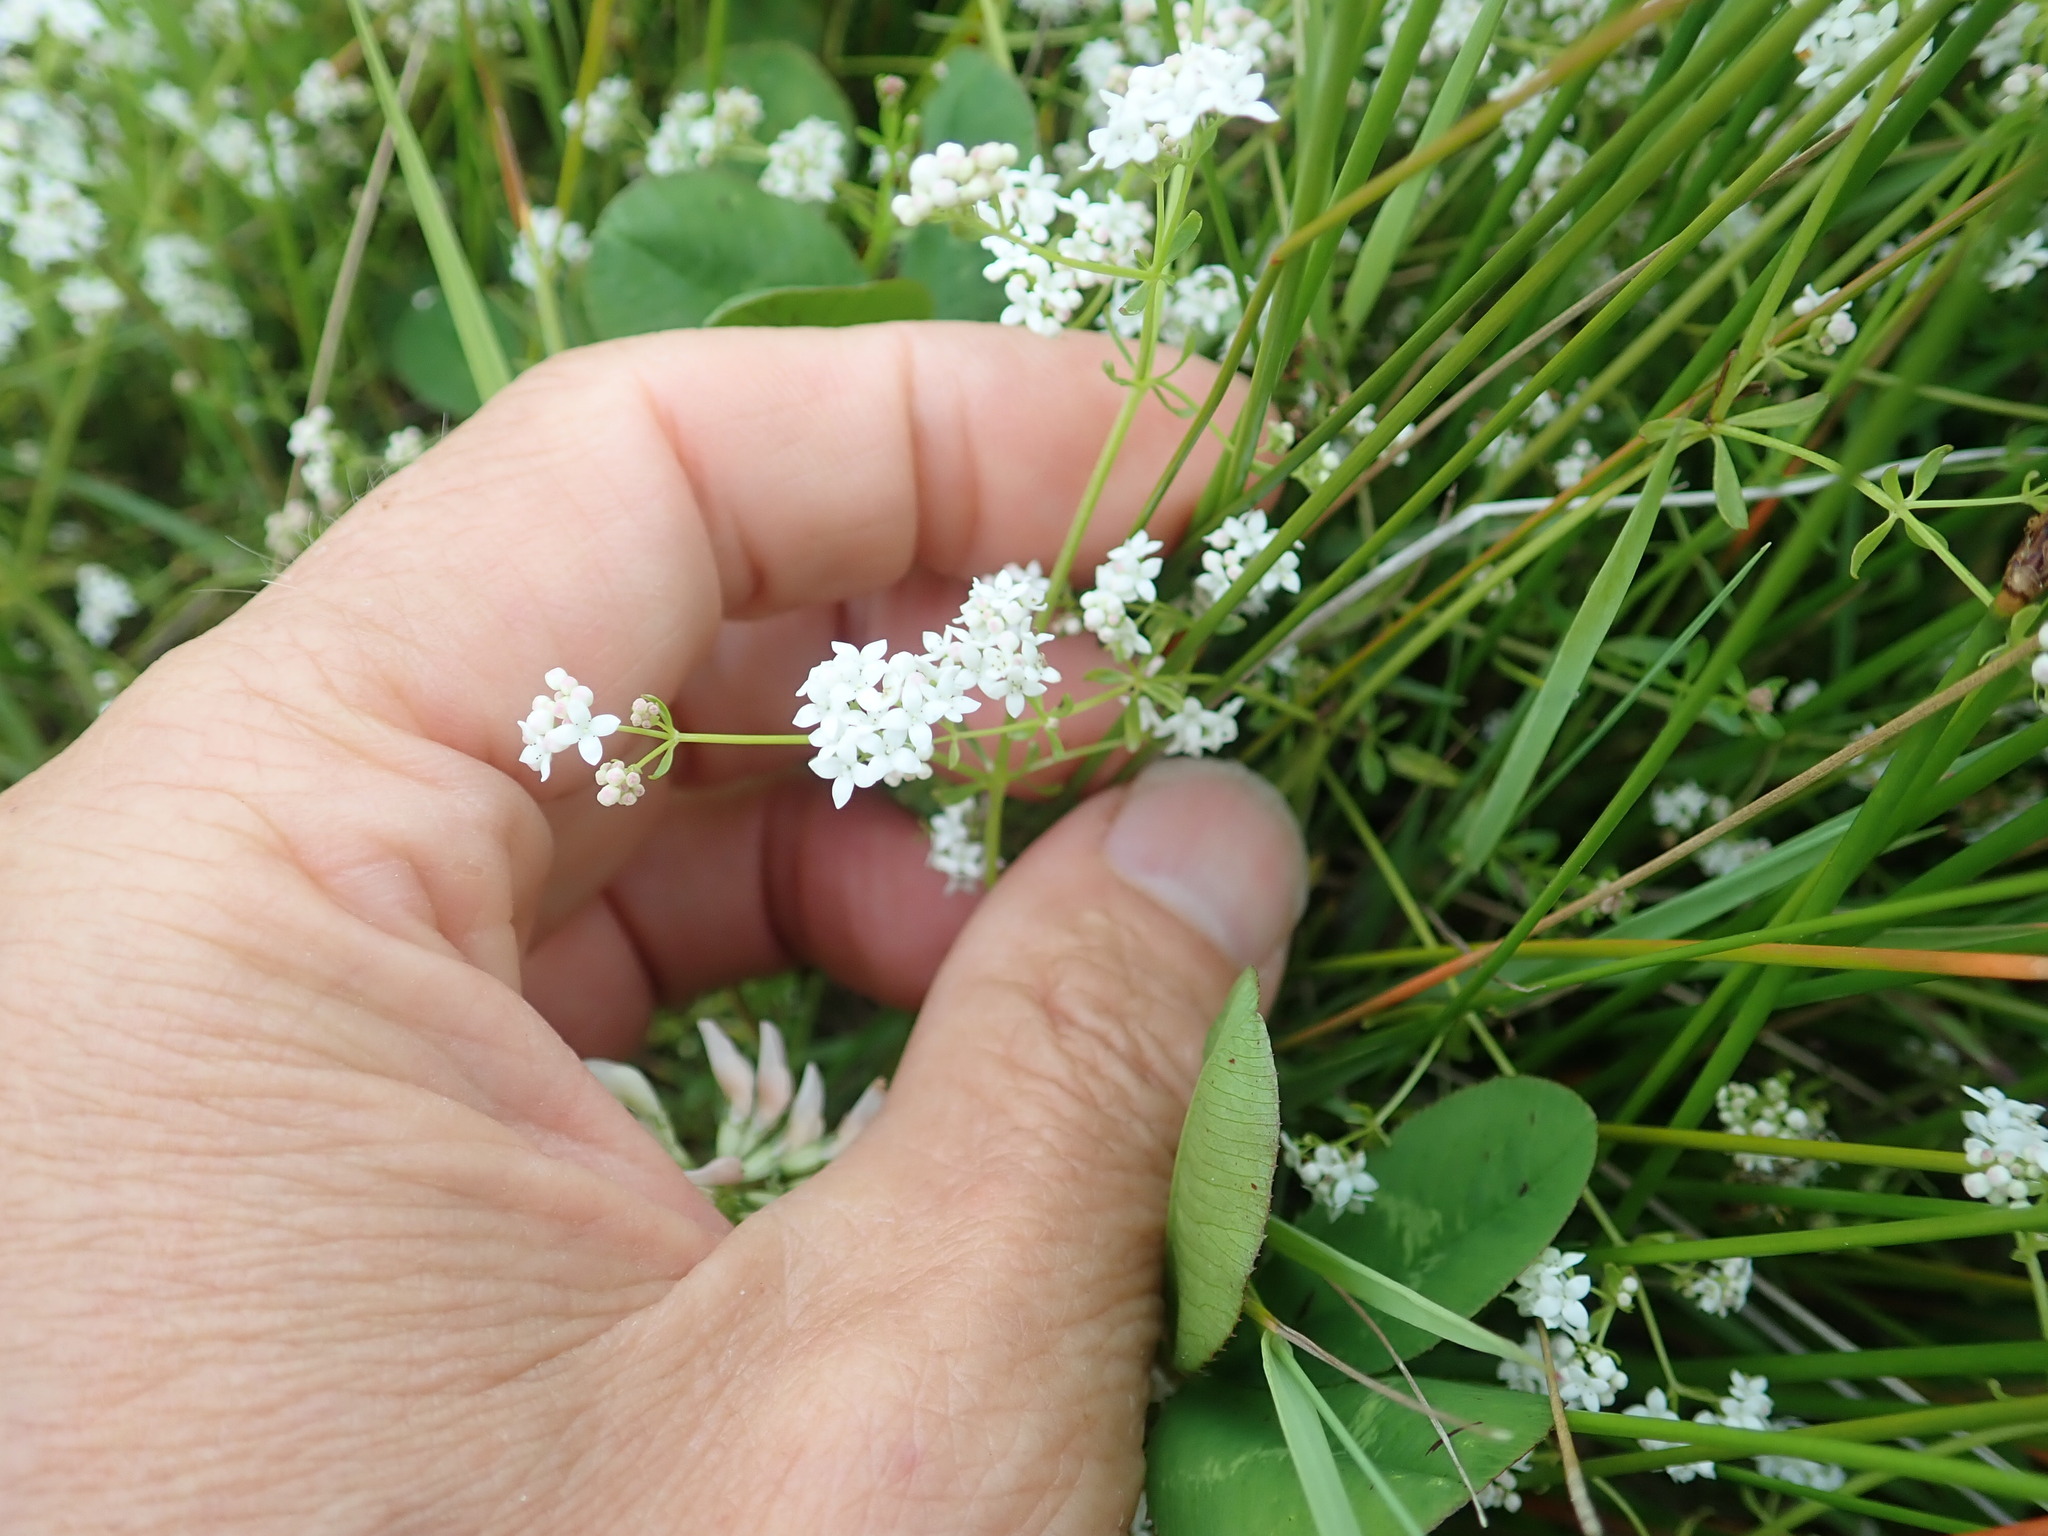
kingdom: Plantae
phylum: Tracheophyta
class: Magnoliopsida
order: Gentianales
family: Rubiaceae
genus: Galium
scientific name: Galium palustre
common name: Common marsh-bedstraw
